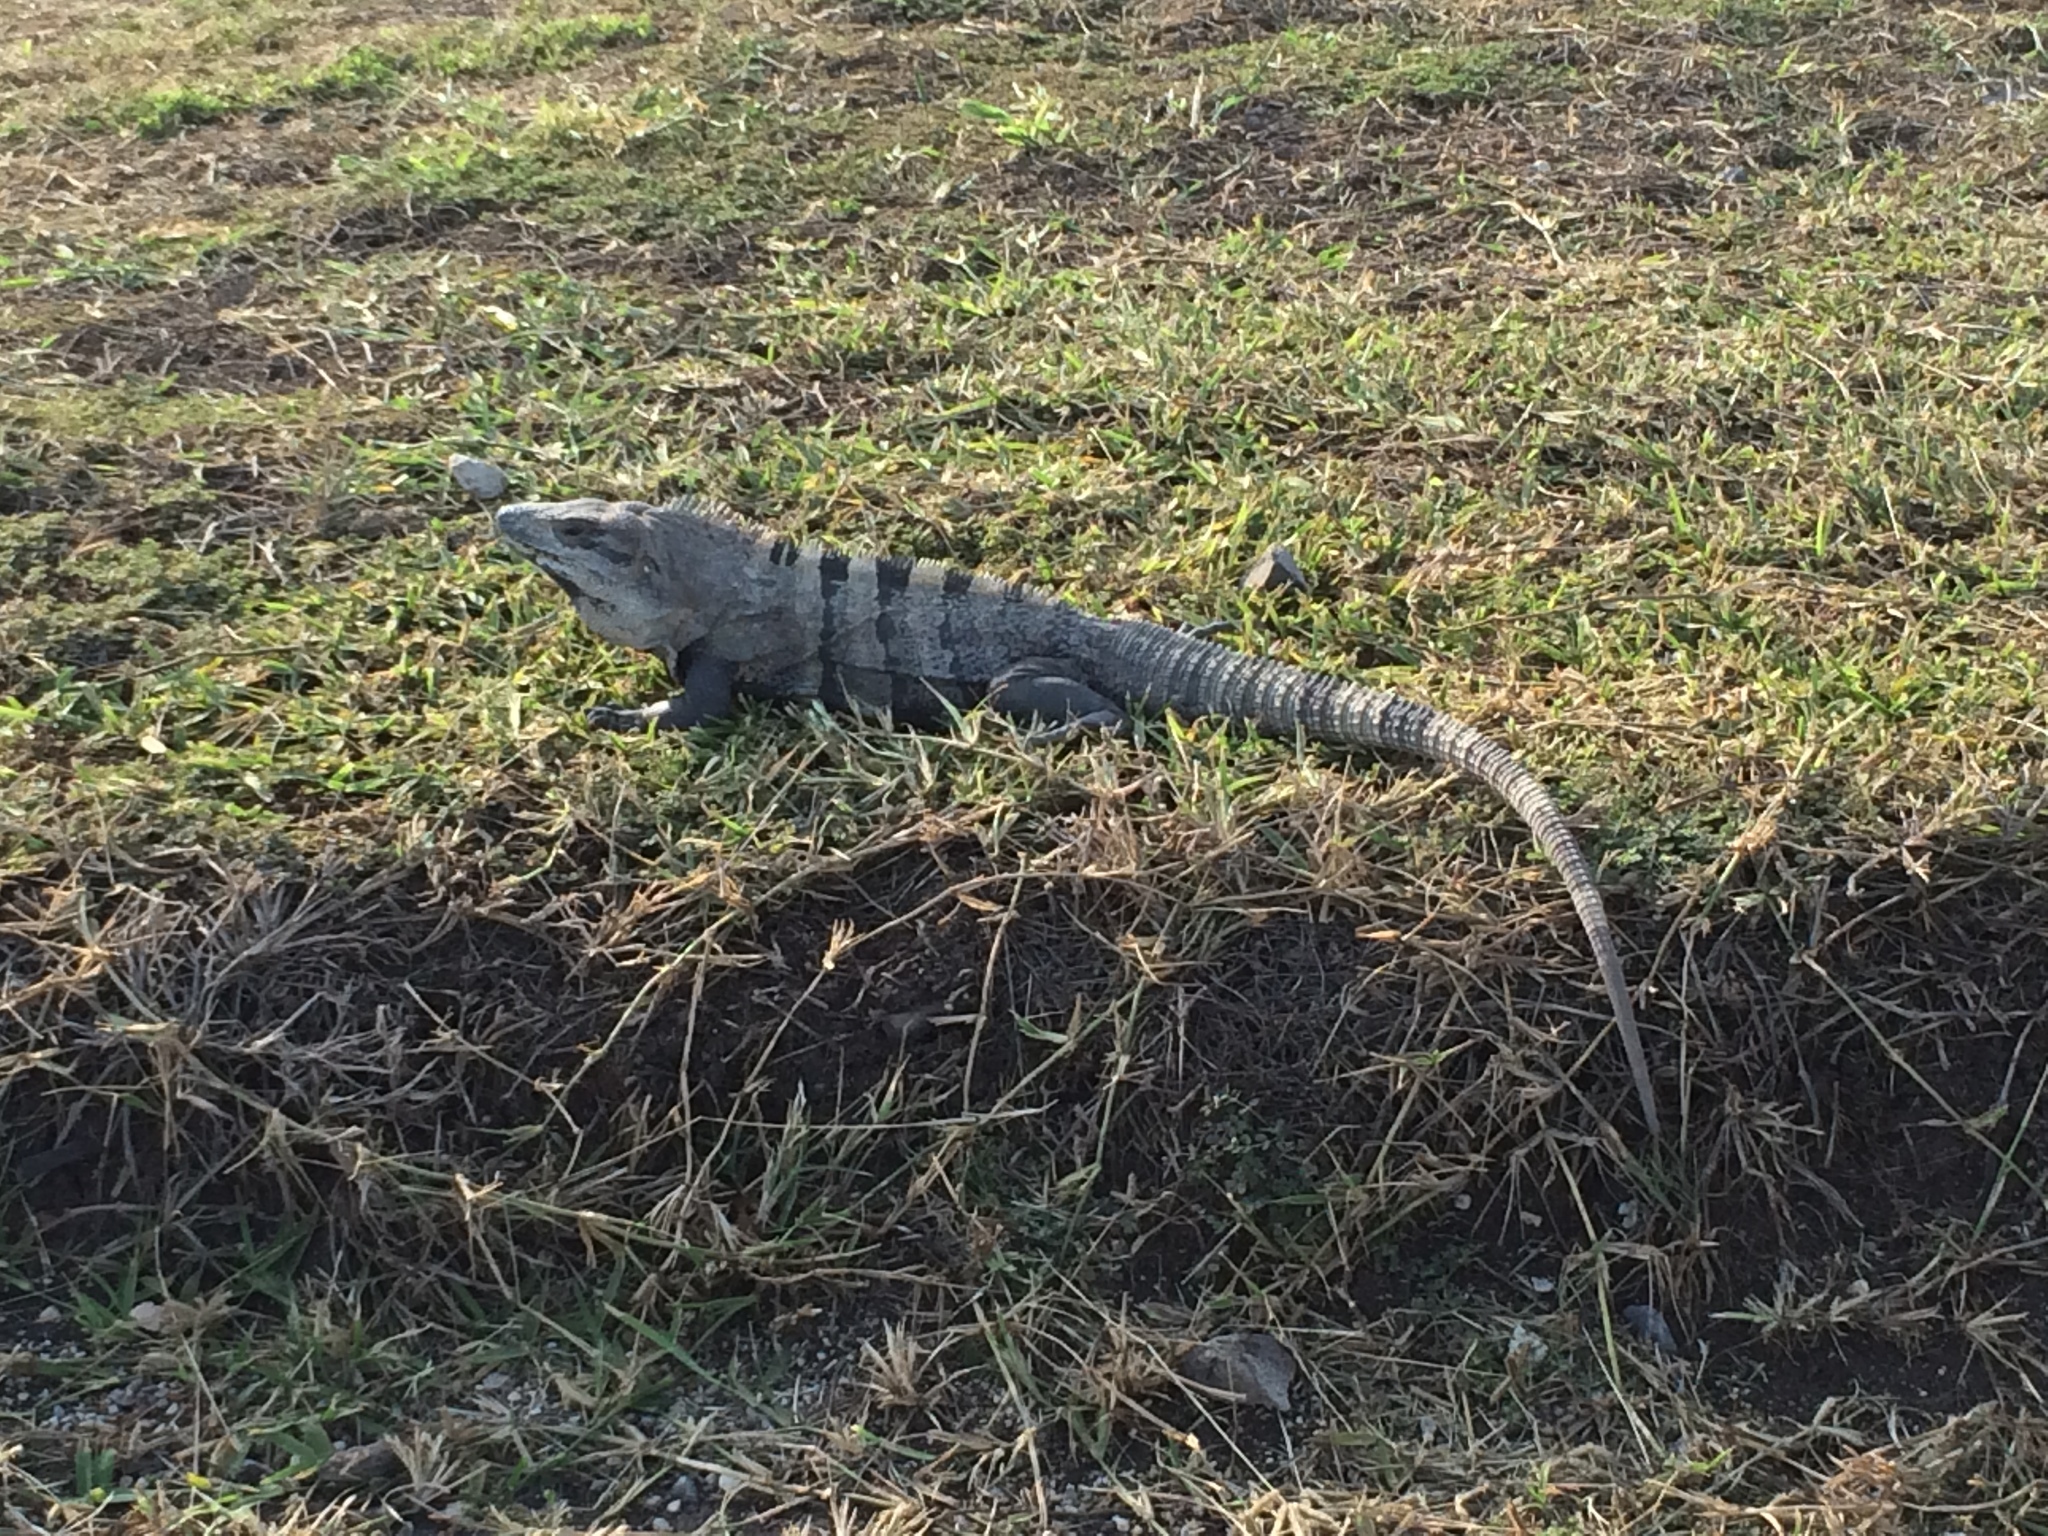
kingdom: Animalia
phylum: Chordata
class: Squamata
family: Iguanidae
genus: Ctenosaura
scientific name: Ctenosaura similis
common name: Black spiny-tailed iguana
